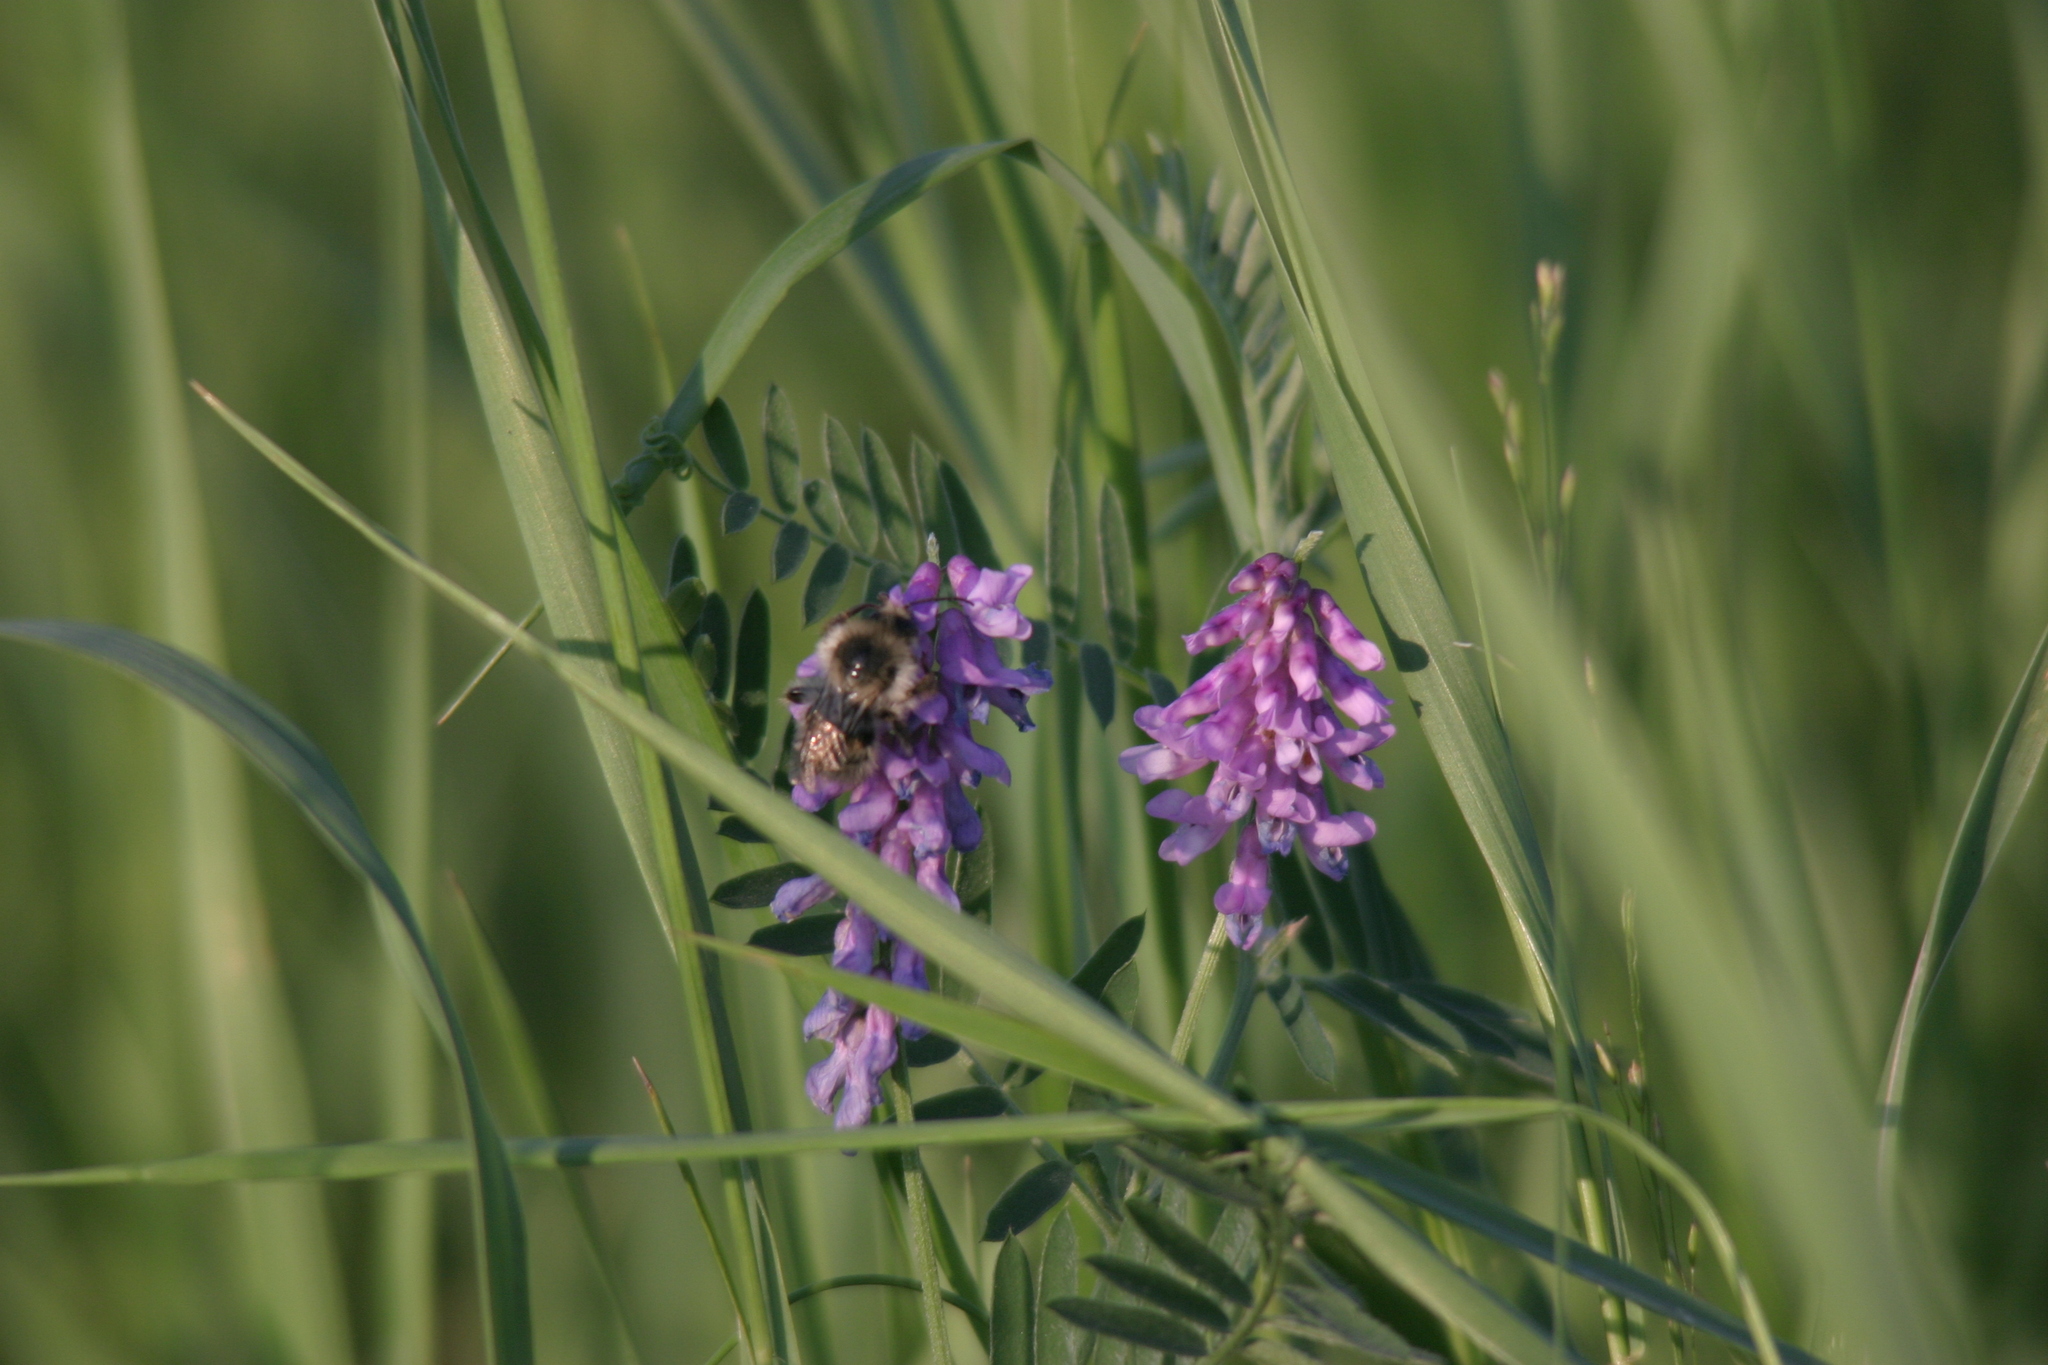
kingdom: Plantae
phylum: Tracheophyta
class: Magnoliopsida
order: Fabales
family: Fabaceae
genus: Vicia
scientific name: Vicia cracca
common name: Bird vetch
